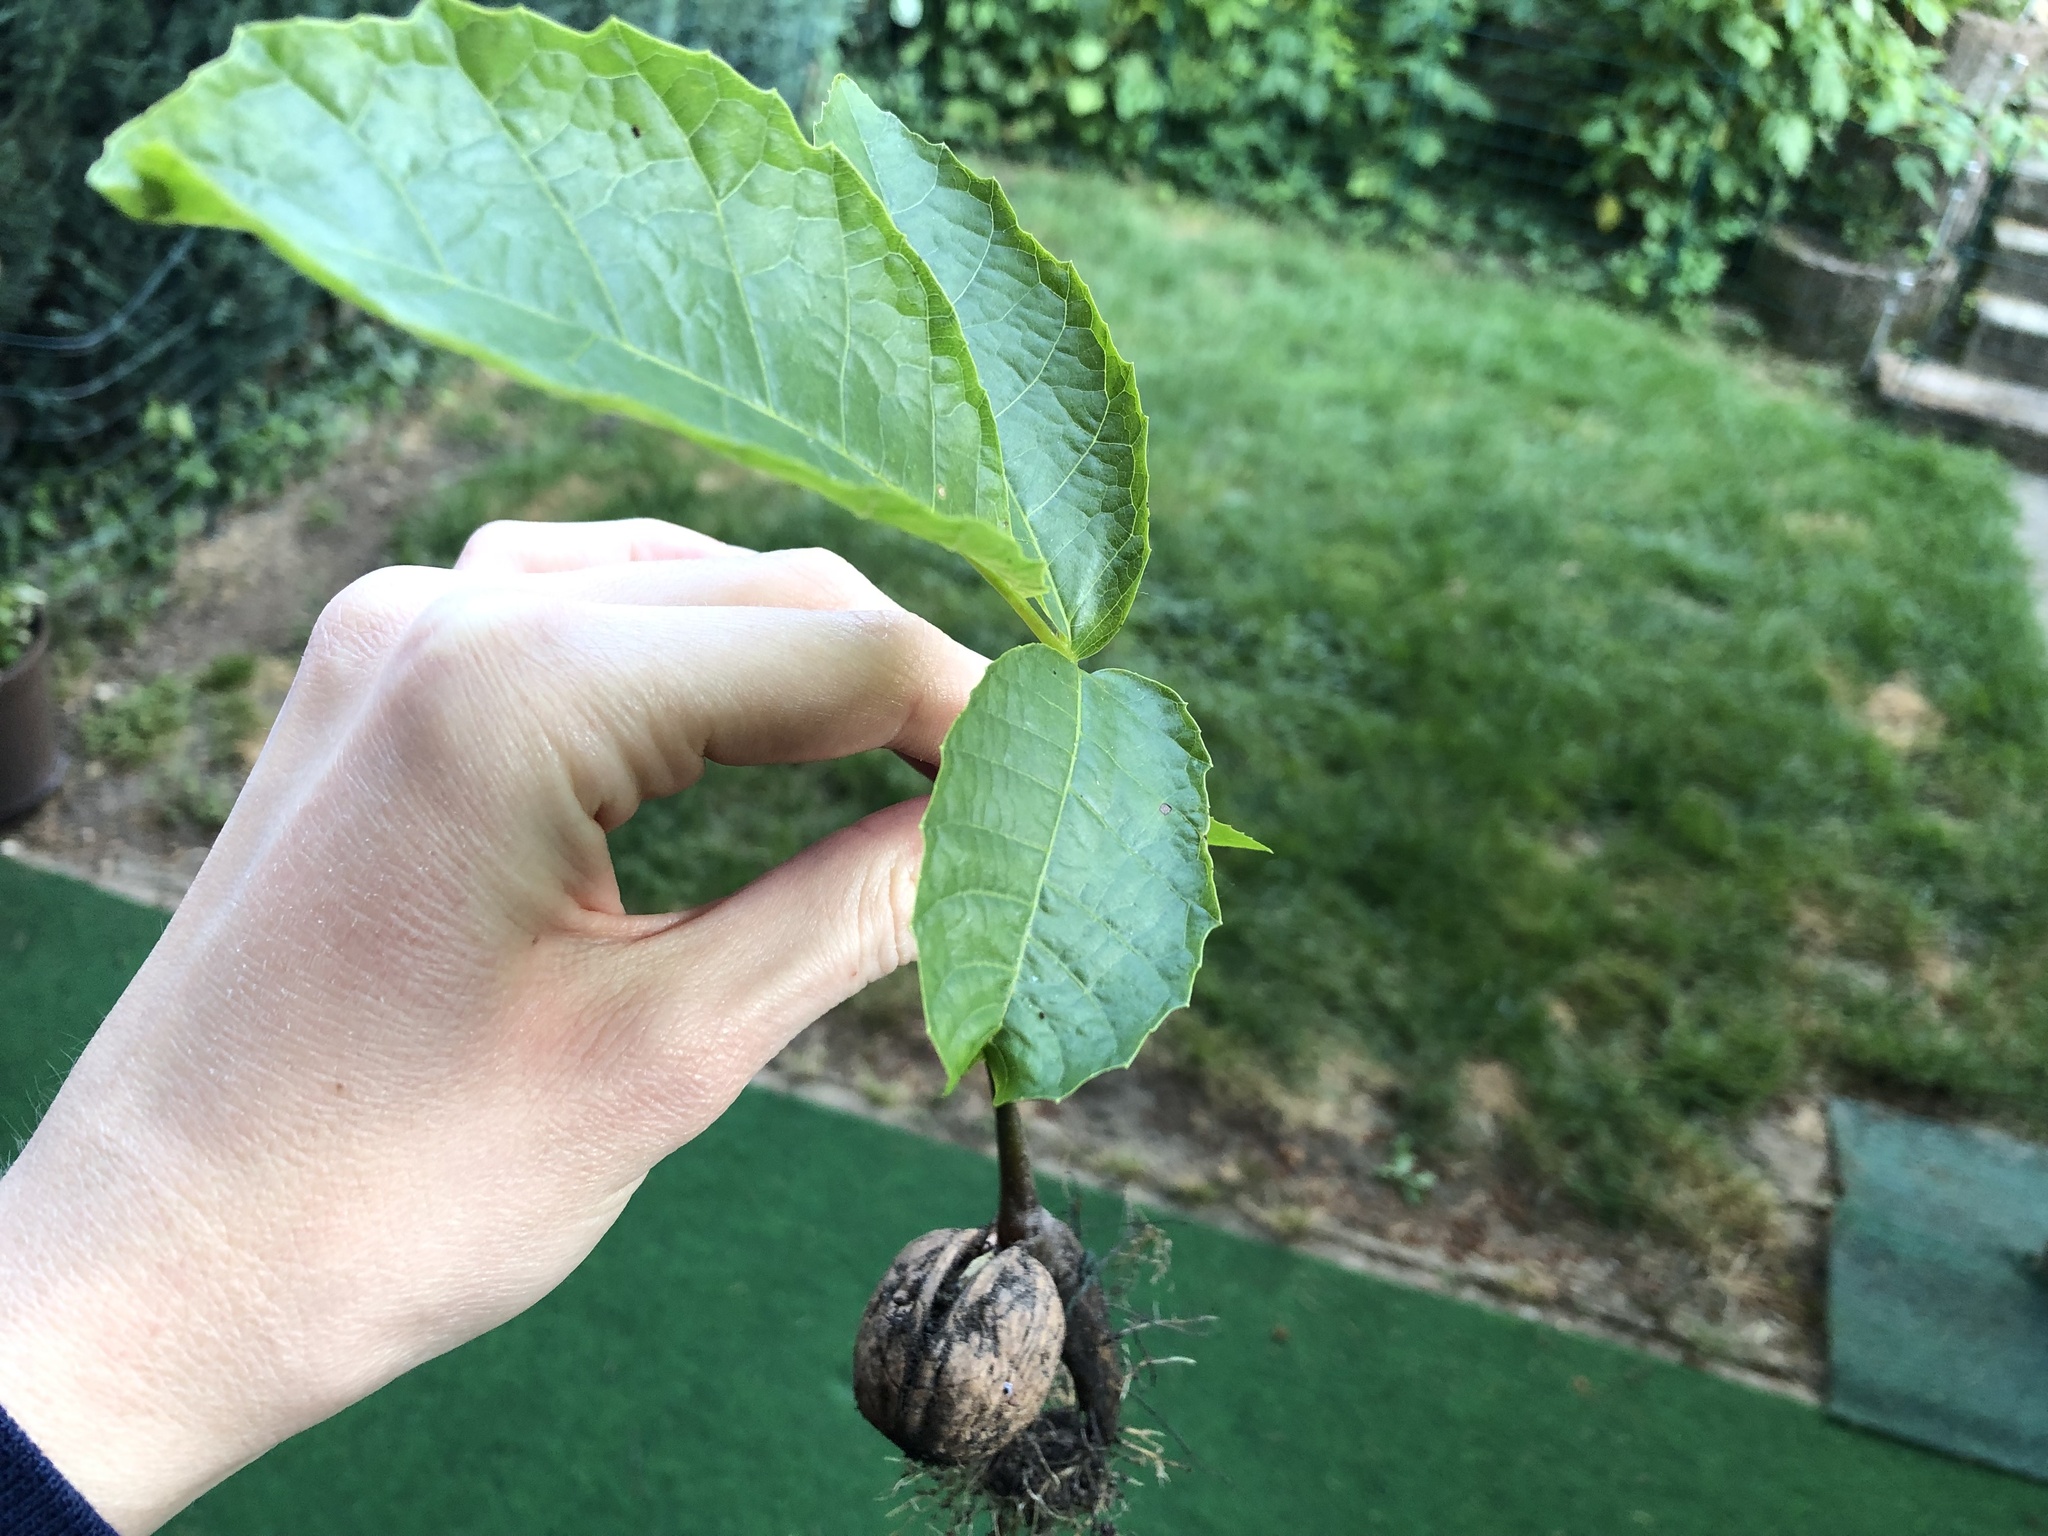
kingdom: Plantae
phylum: Tracheophyta
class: Magnoliopsida
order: Fagales
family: Juglandaceae
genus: Juglans
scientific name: Juglans regia
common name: Walnut
